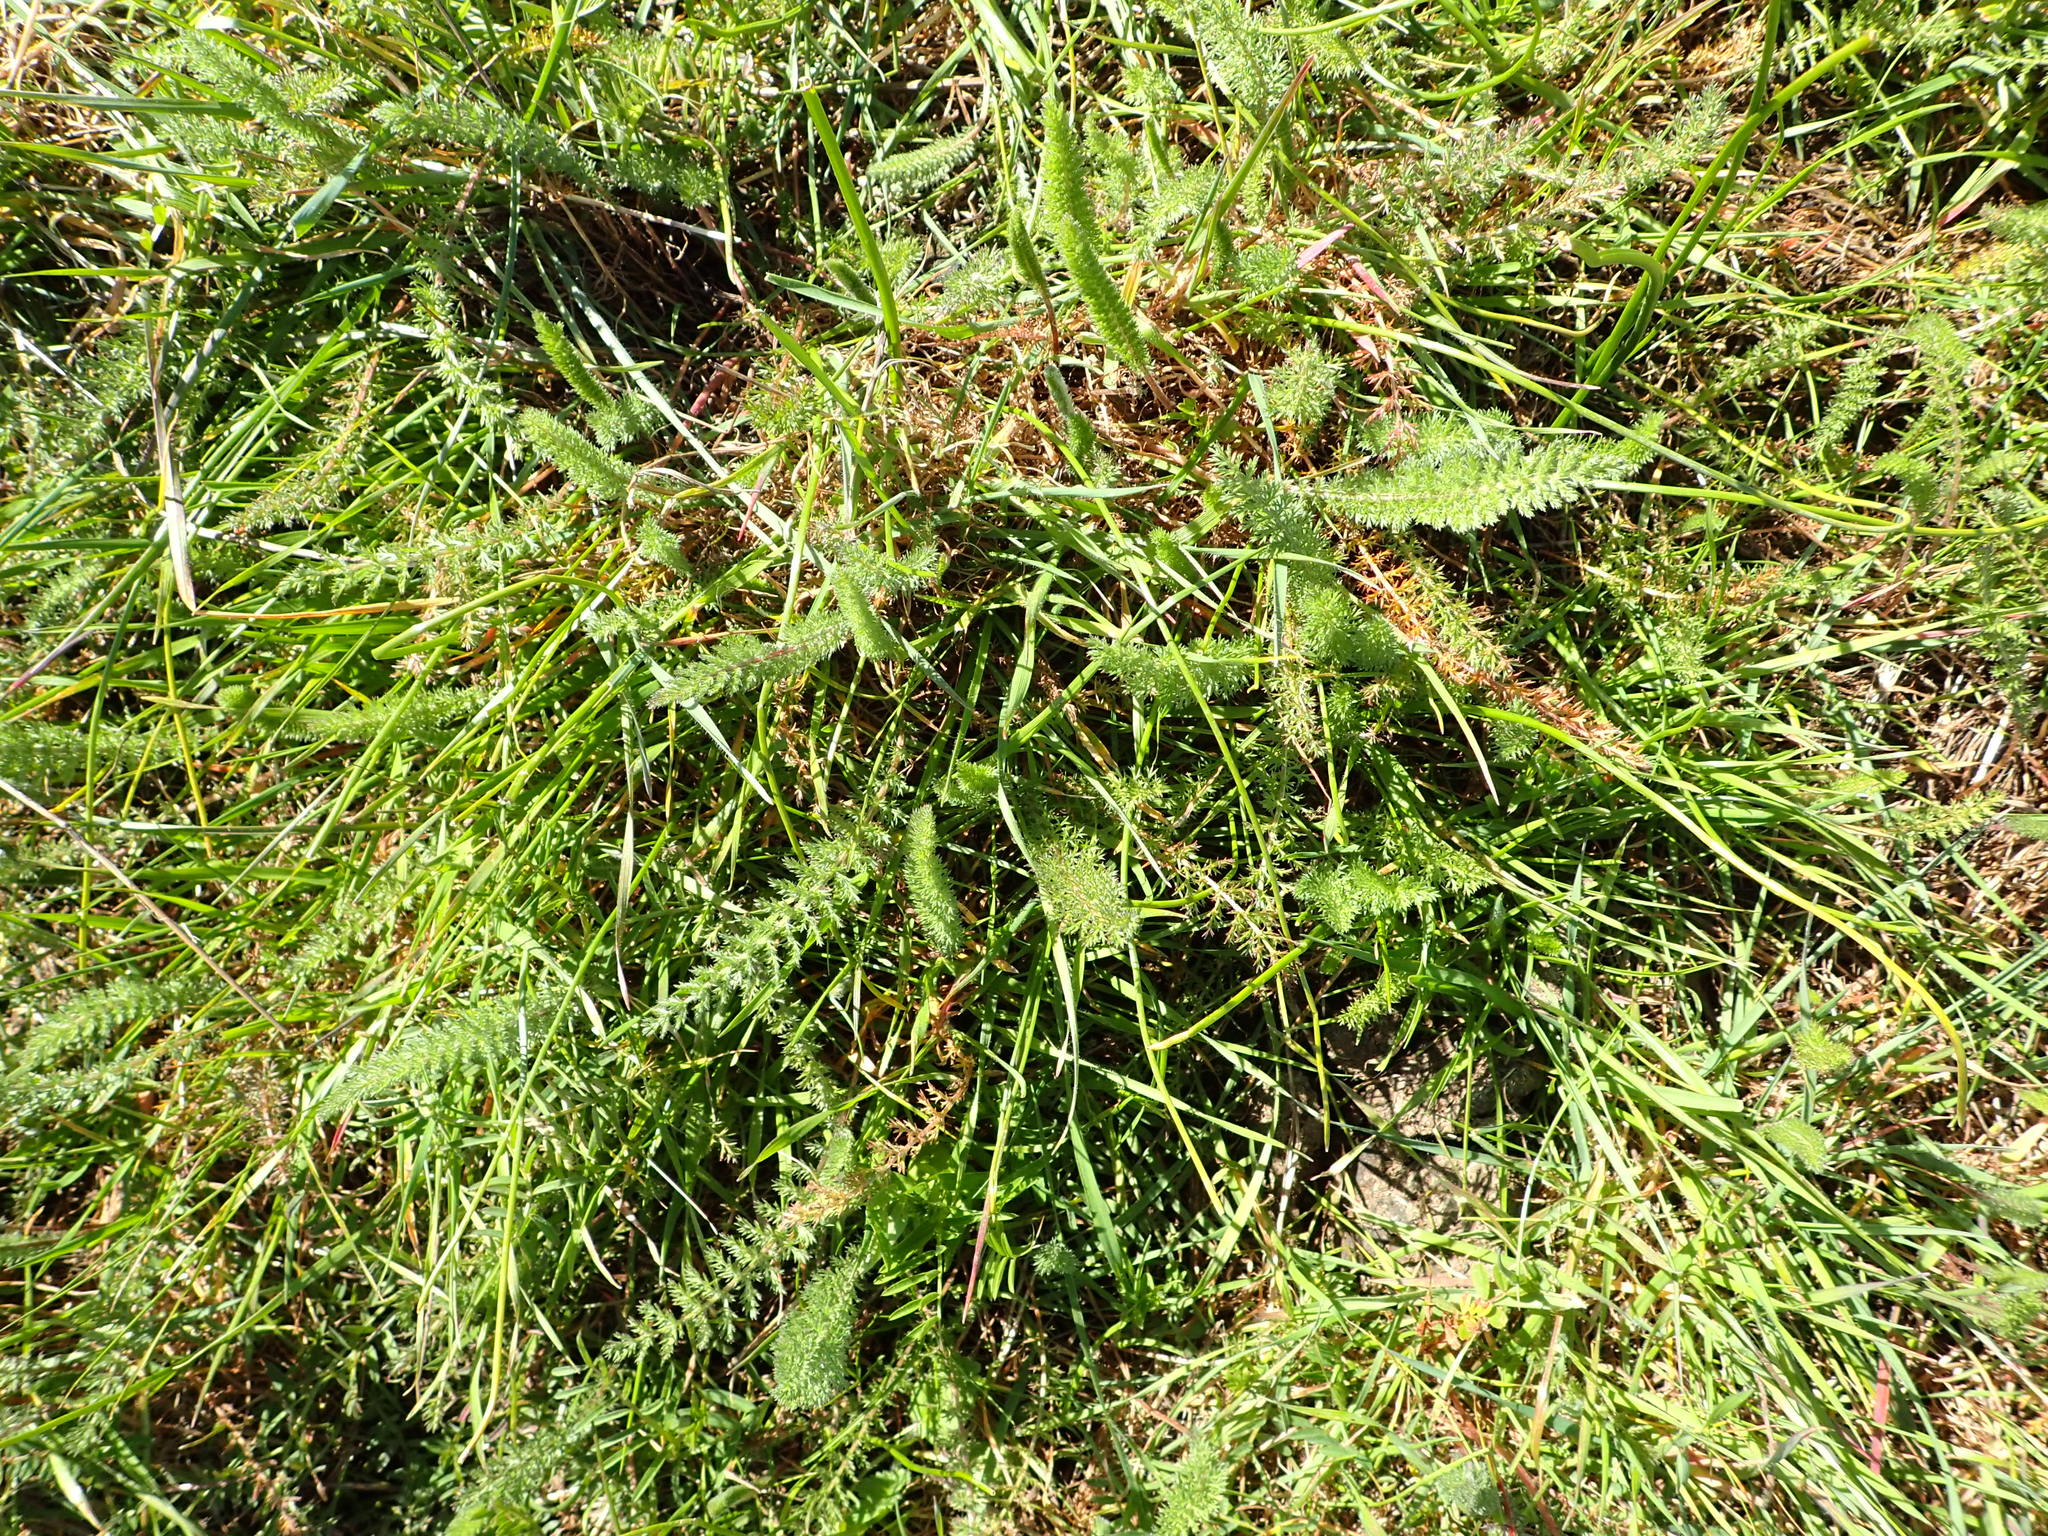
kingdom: Plantae
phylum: Tracheophyta
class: Magnoliopsida
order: Asterales
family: Asteraceae
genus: Achillea
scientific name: Achillea millefolium
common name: Yarrow
